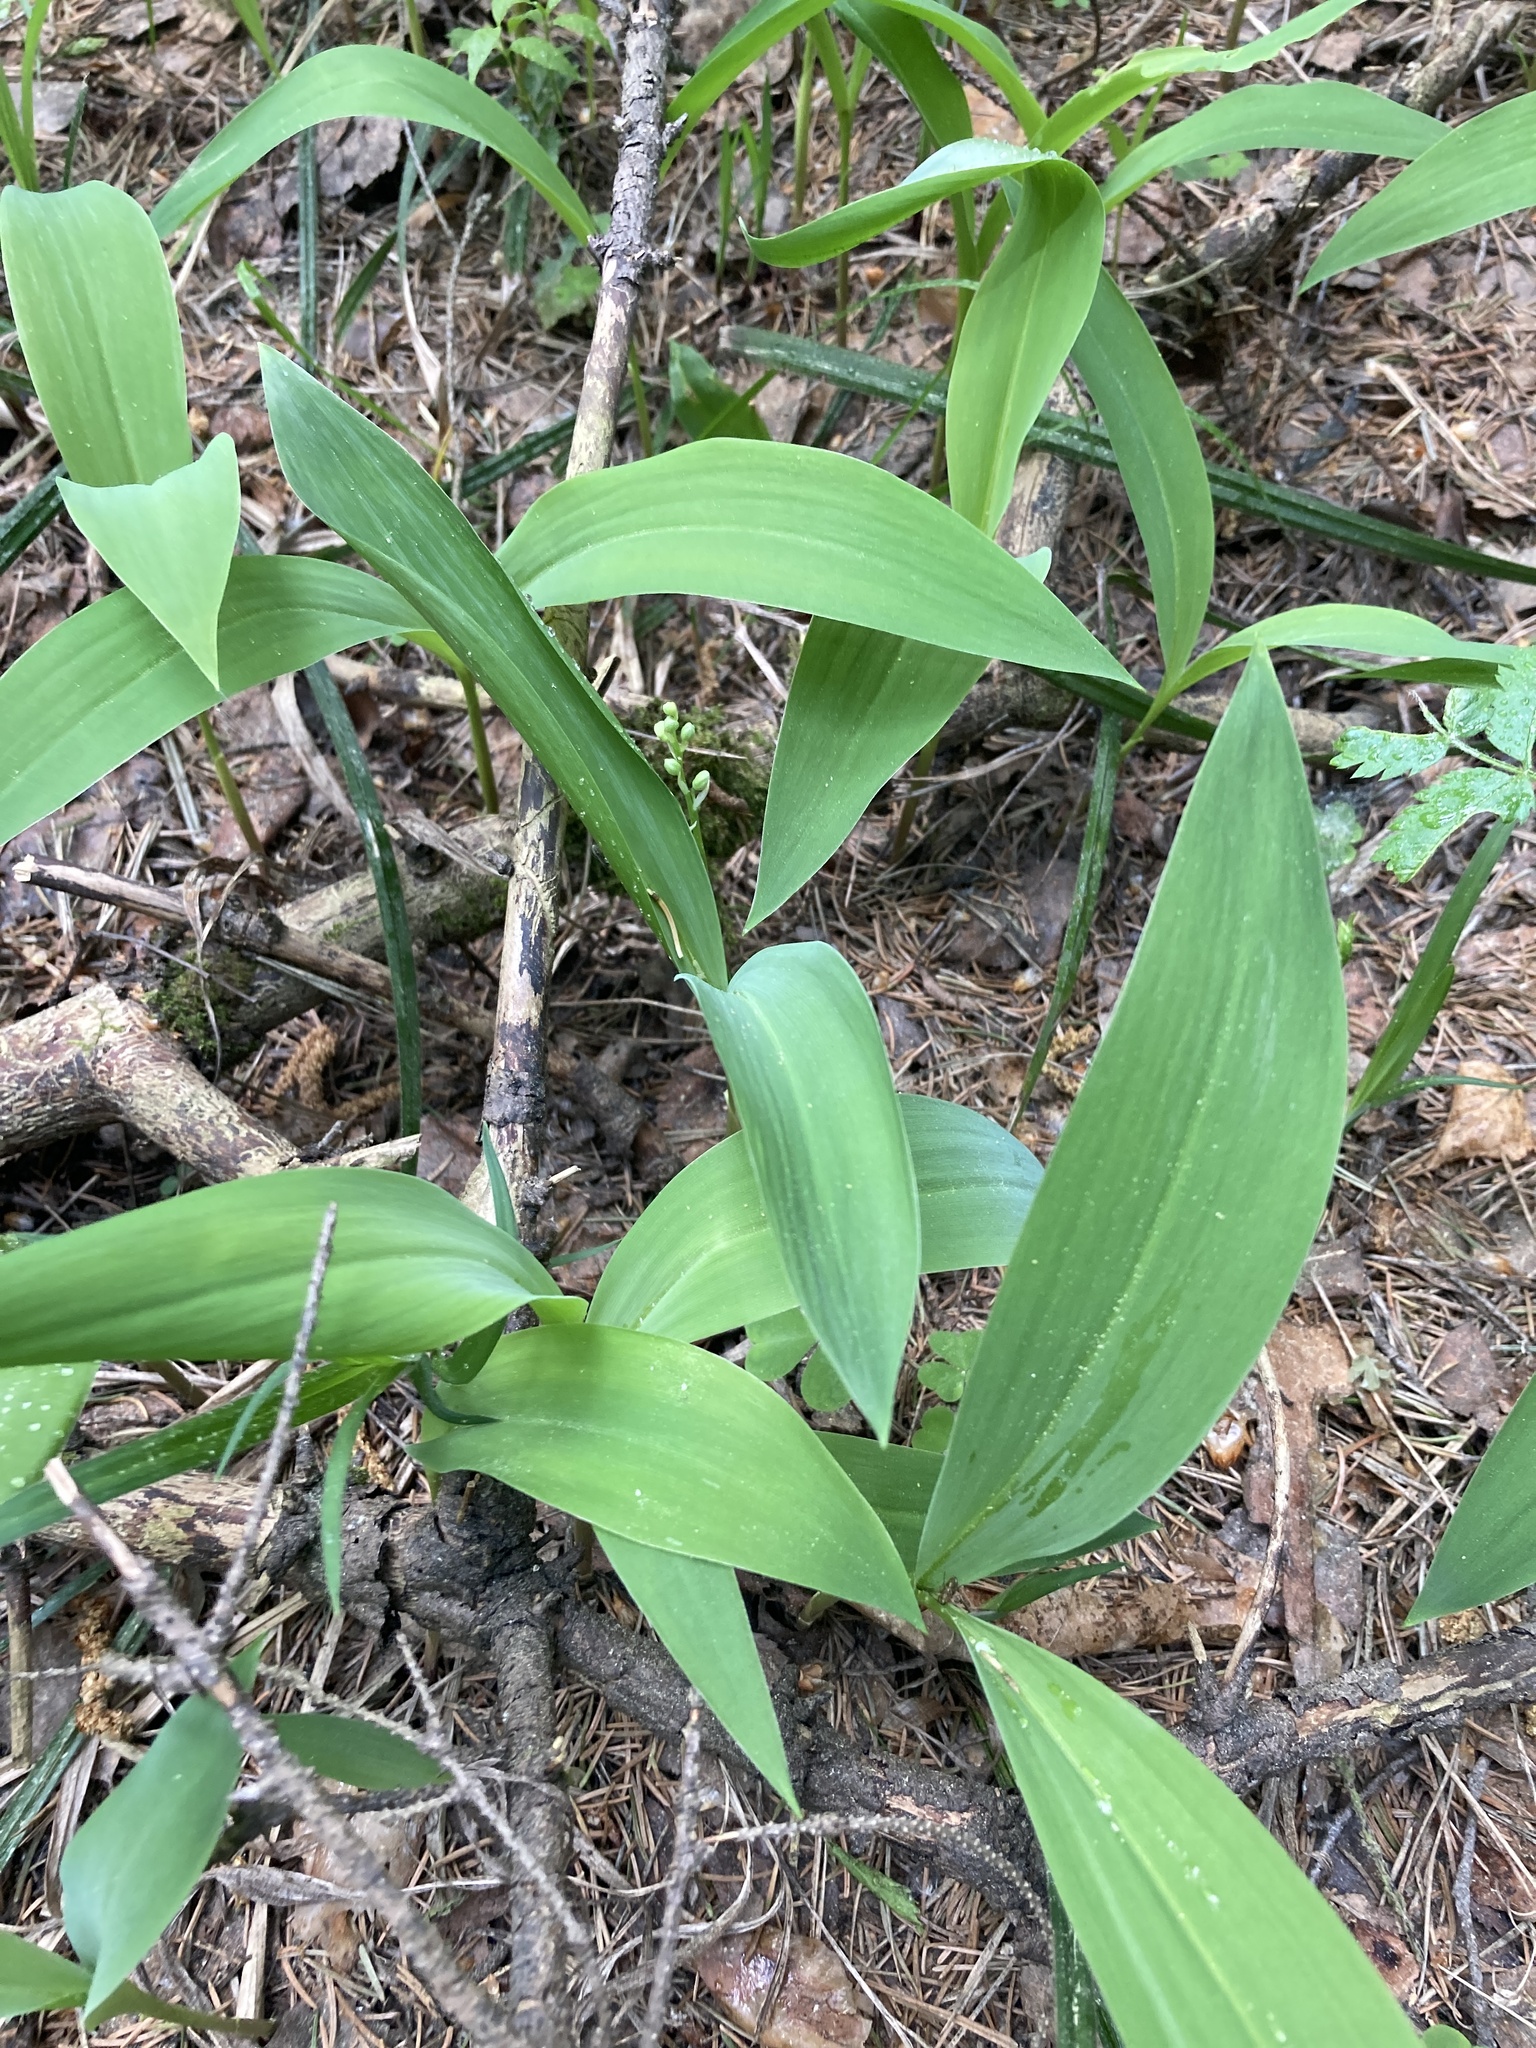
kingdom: Plantae
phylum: Tracheophyta
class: Liliopsida
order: Asparagales
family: Asparagaceae
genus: Convallaria
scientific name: Convallaria majalis
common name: Lily-of-the-valley
